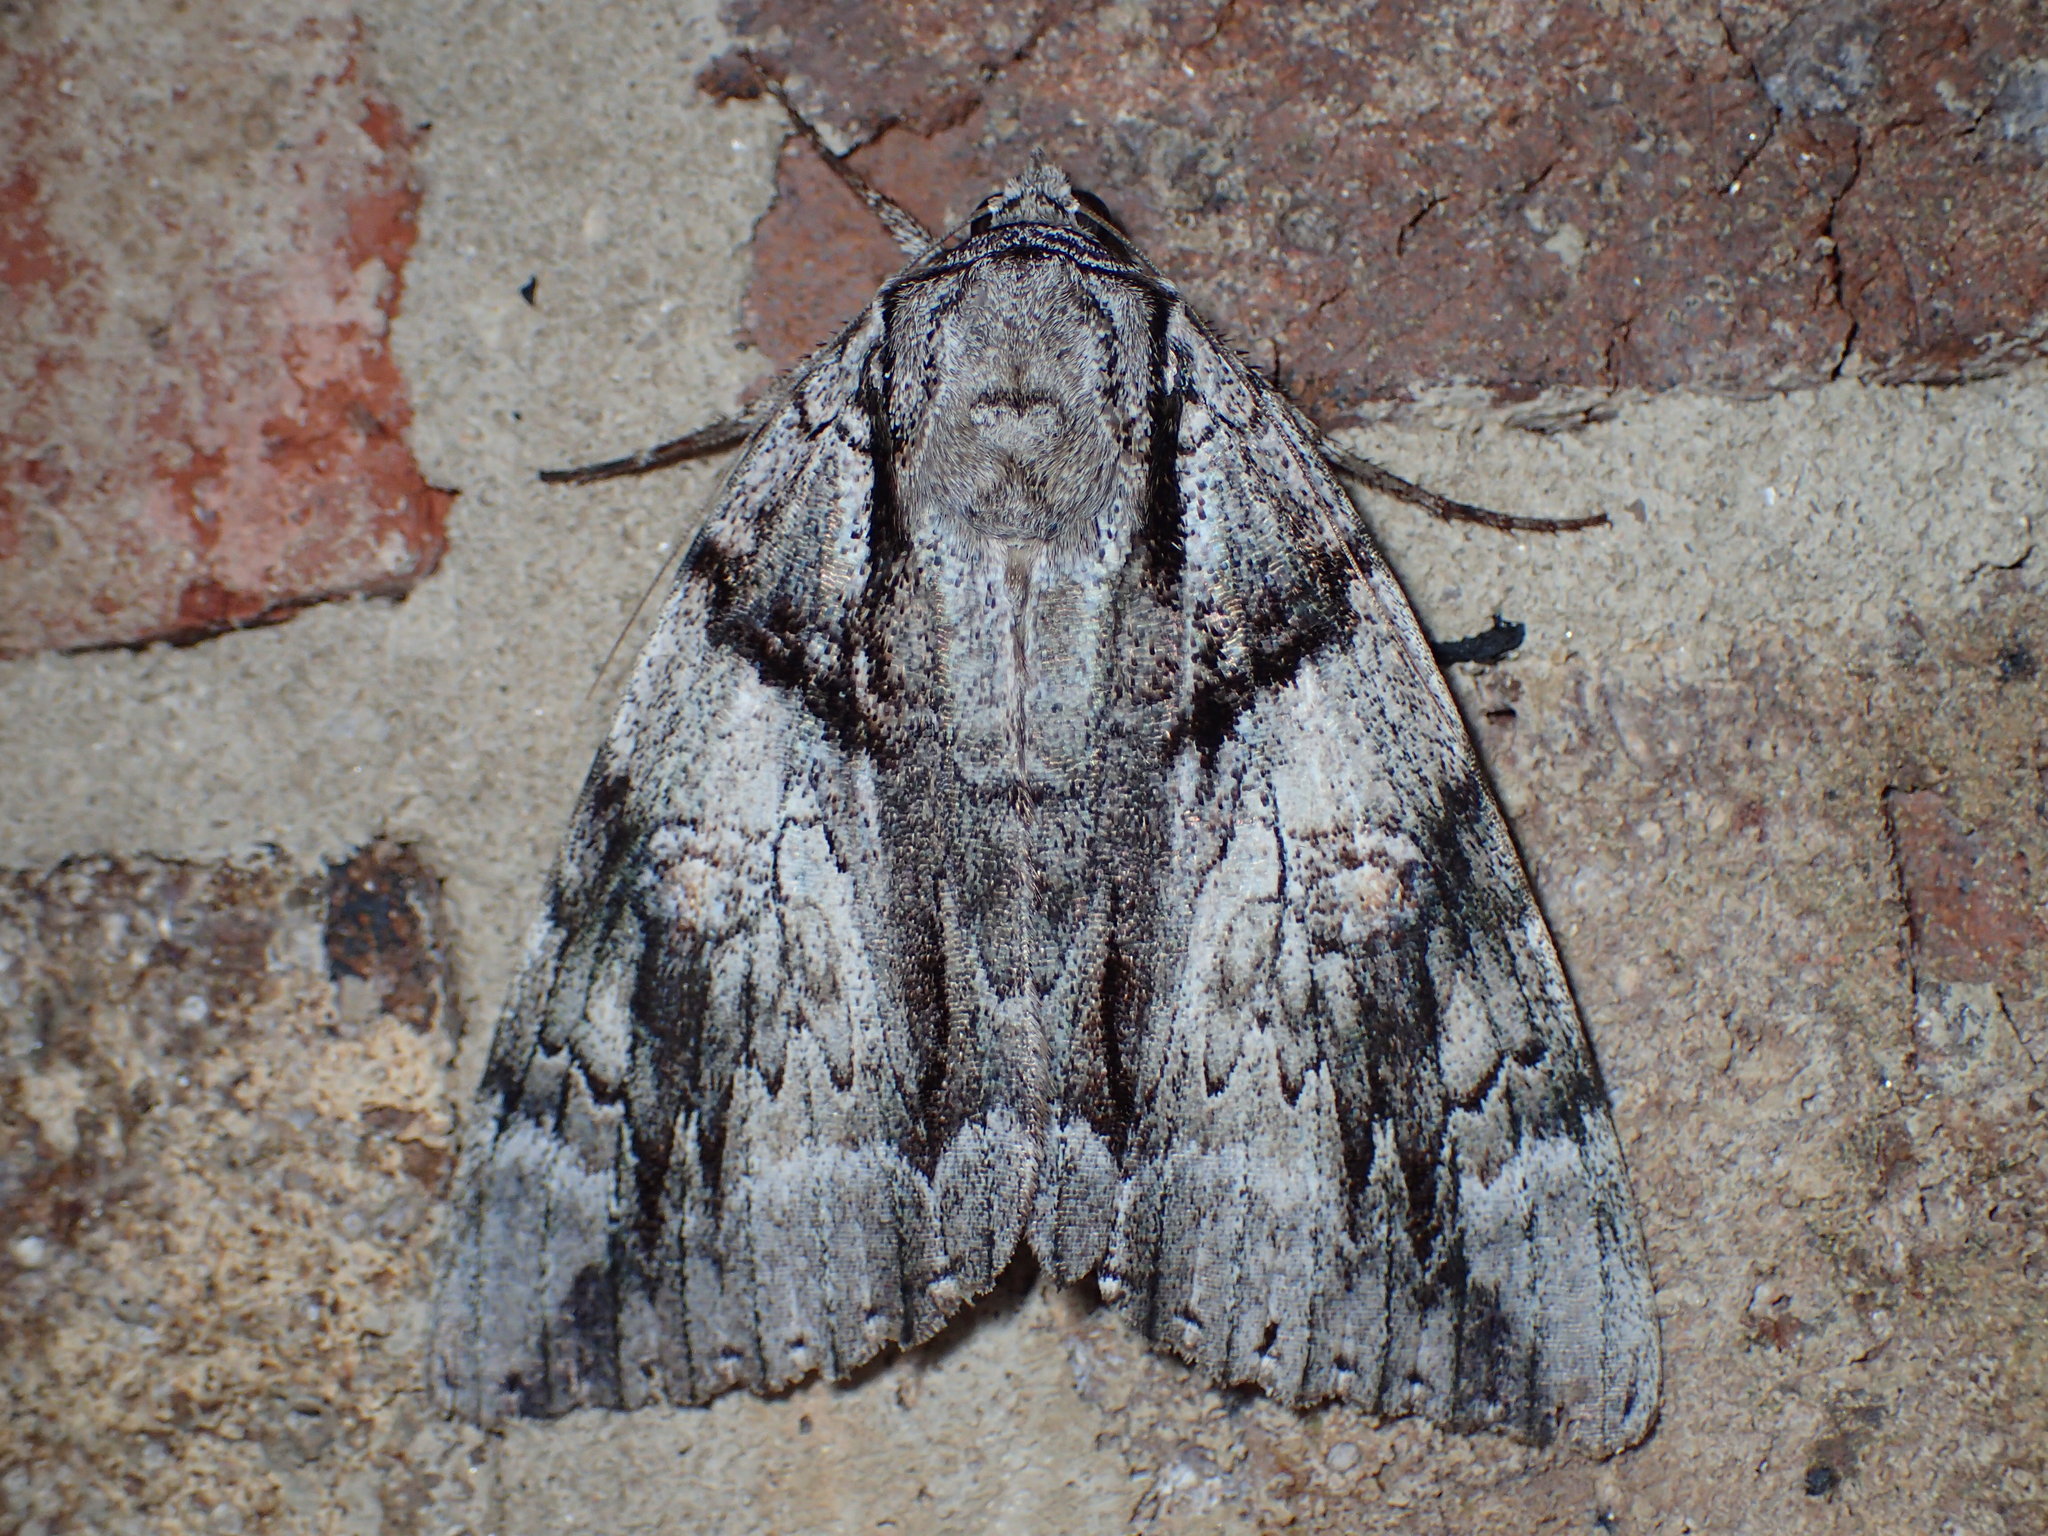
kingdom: Animalia
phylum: Arthropoda
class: Insecta
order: Lepidoptera
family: Erebidae
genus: Catocala
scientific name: Catocala vidua
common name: The widow
